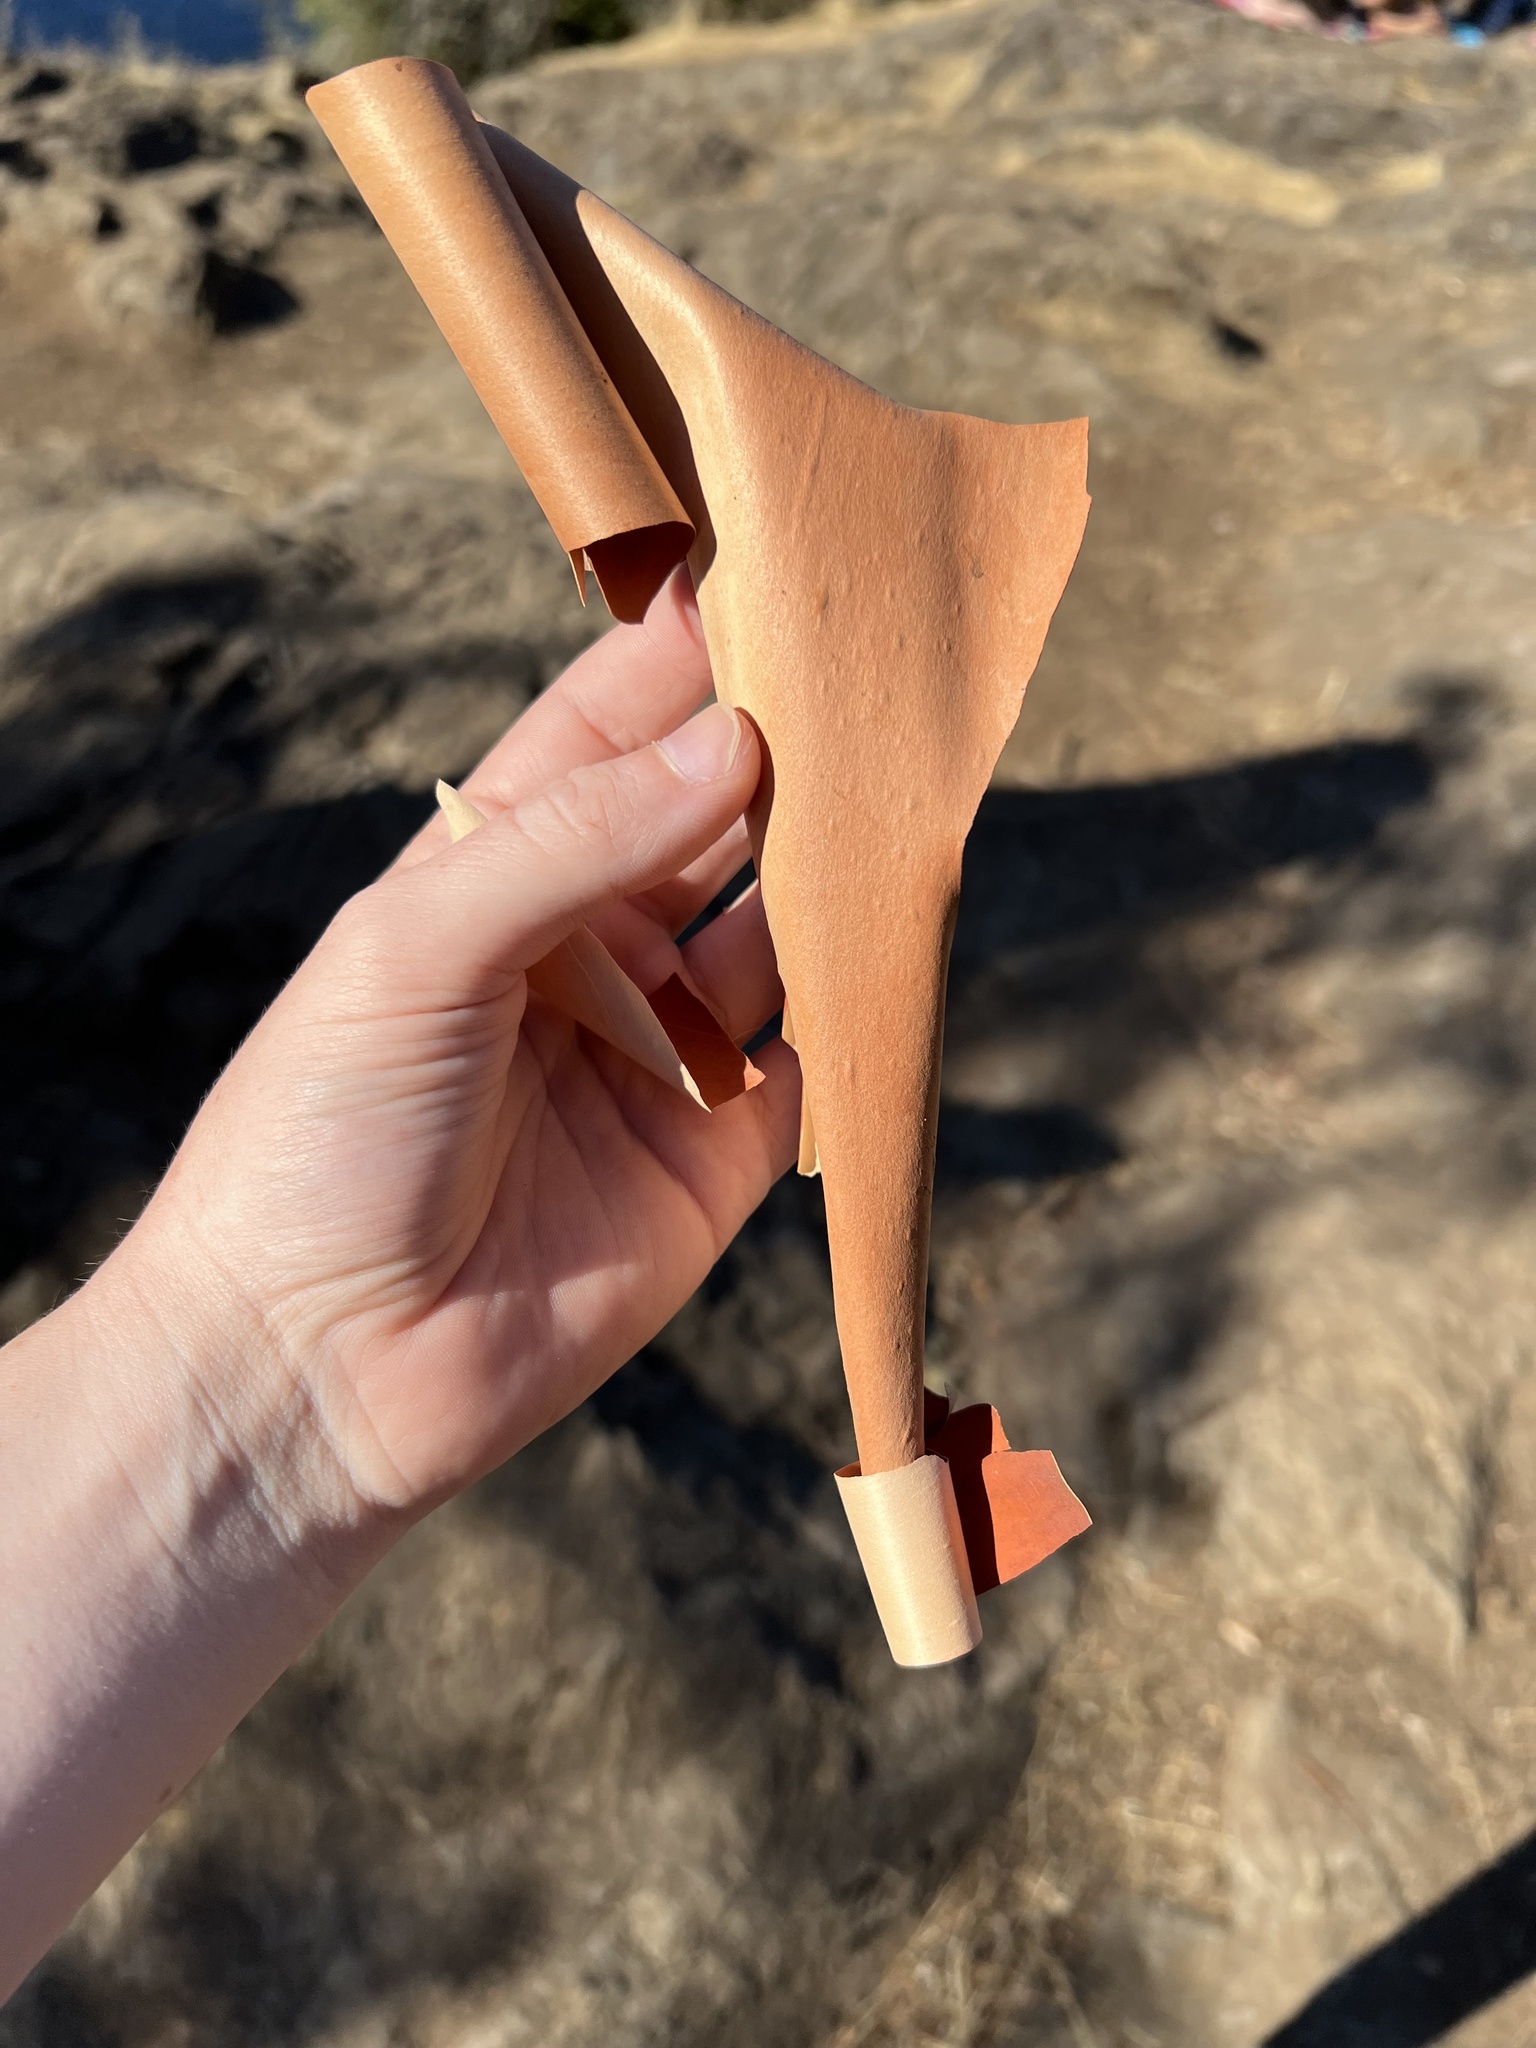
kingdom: Plantae
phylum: Tracheophyta
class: Magnoliopsida
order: Ericales
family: Ericaceae
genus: Arbutus
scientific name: Arbutus menziesii
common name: Pacific madrone
